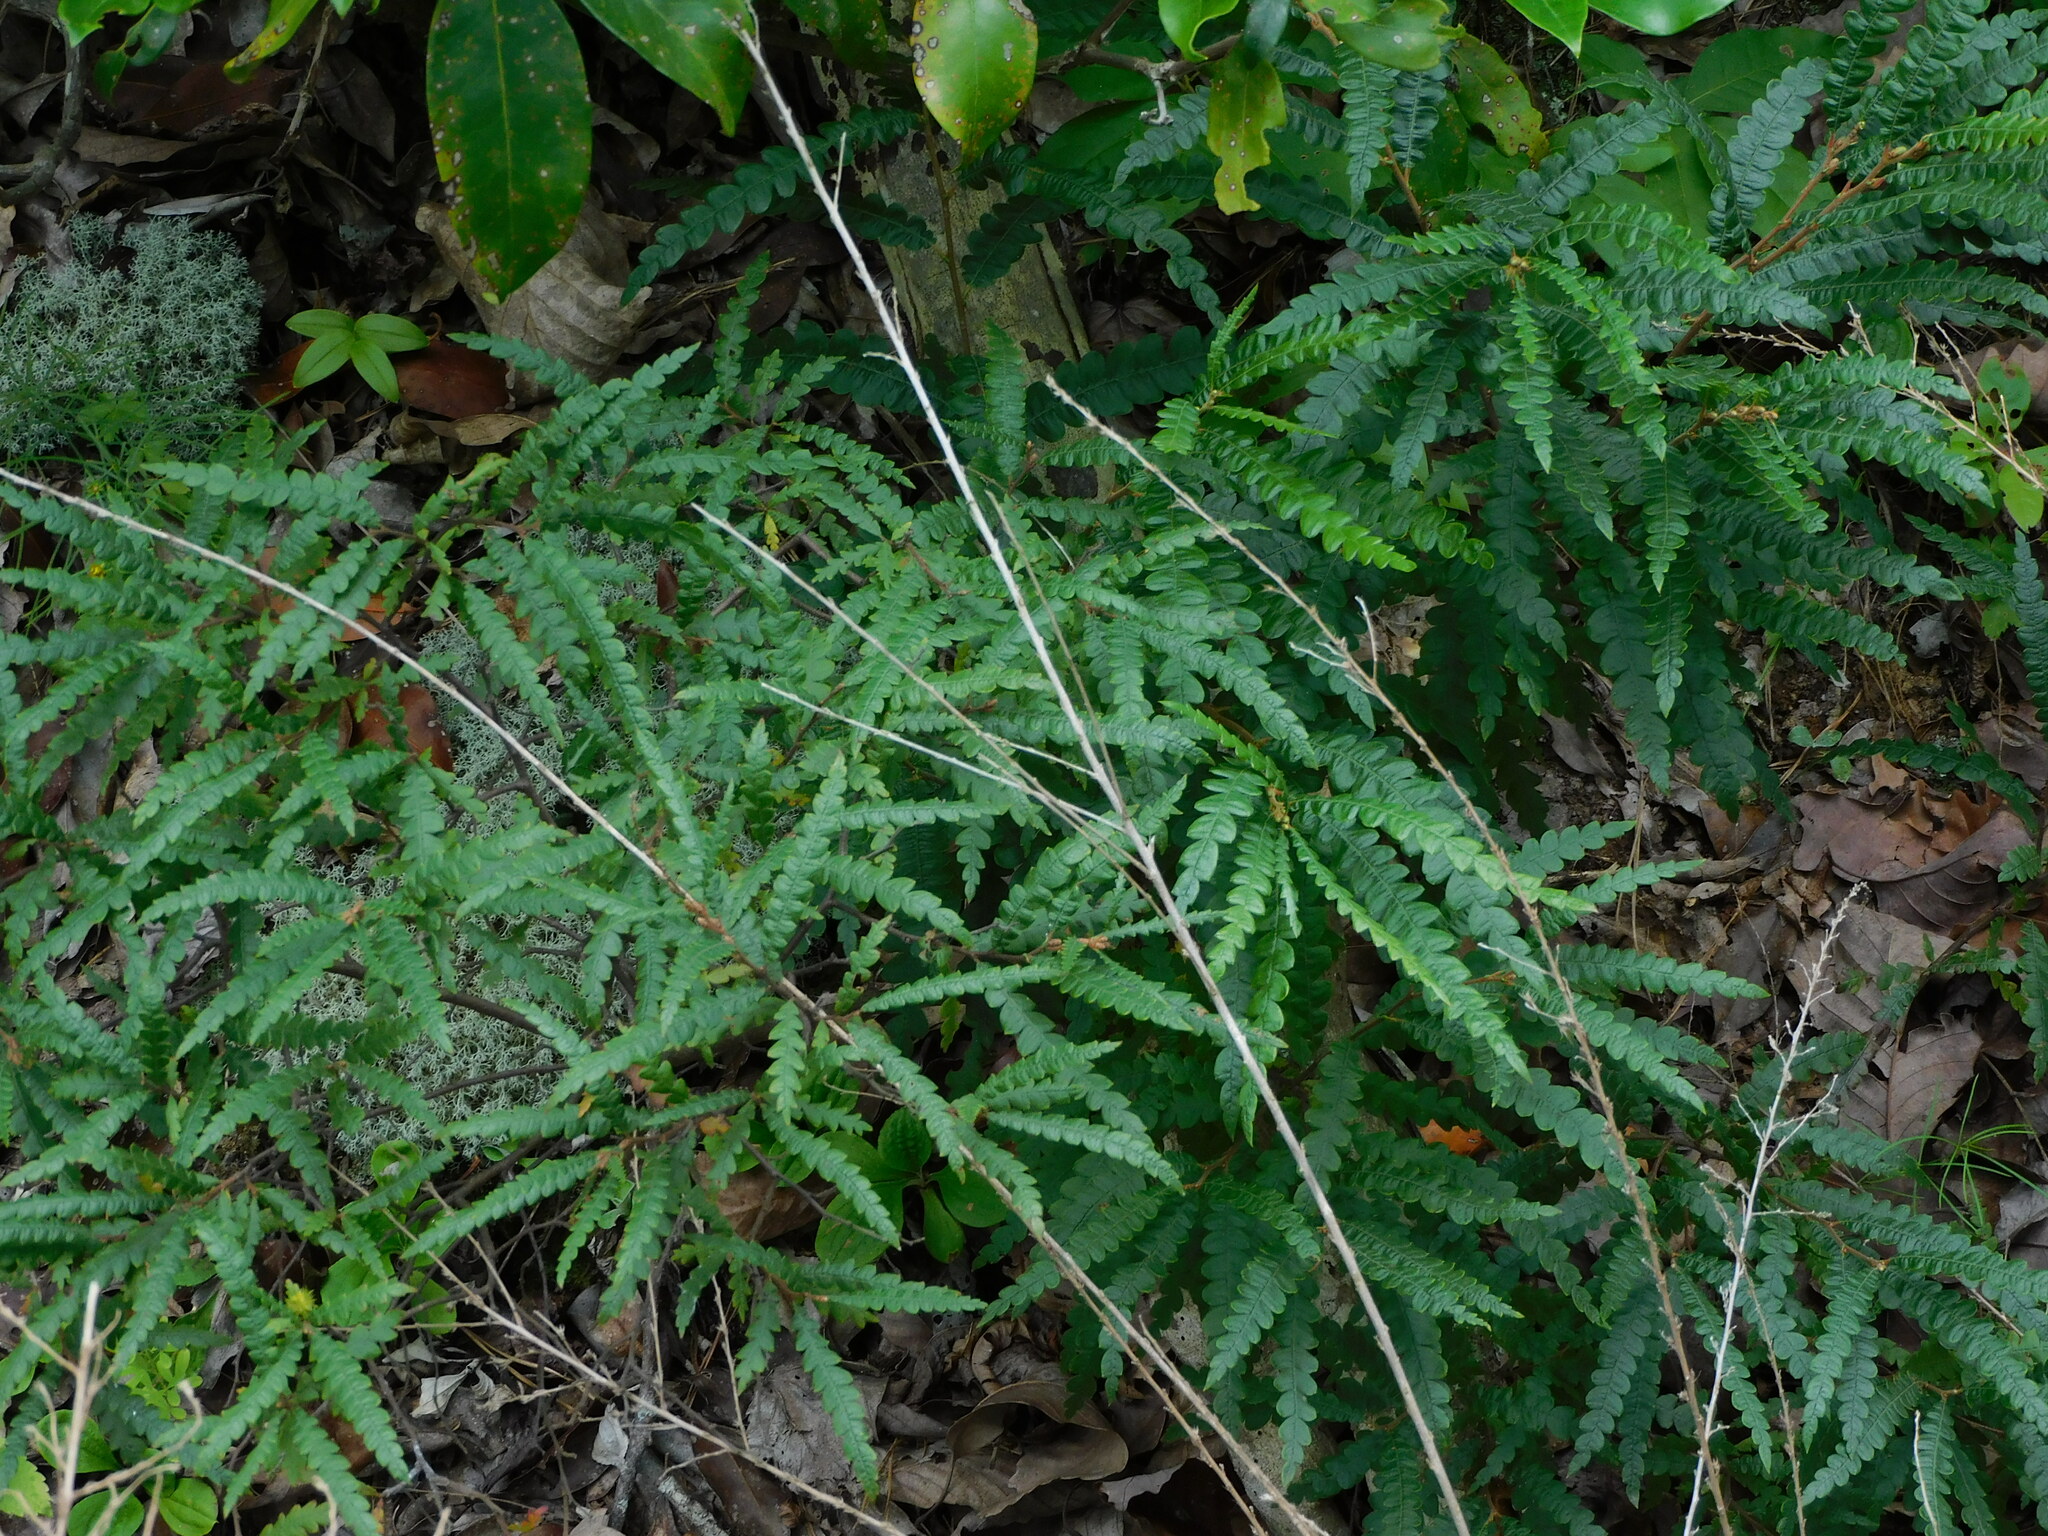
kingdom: Plantae
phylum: Tracheophyta
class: Magnoliopsida
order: Fagales
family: Myricaceae
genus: Comptonia
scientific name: Comptonia peregrina
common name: Sweet-fern
